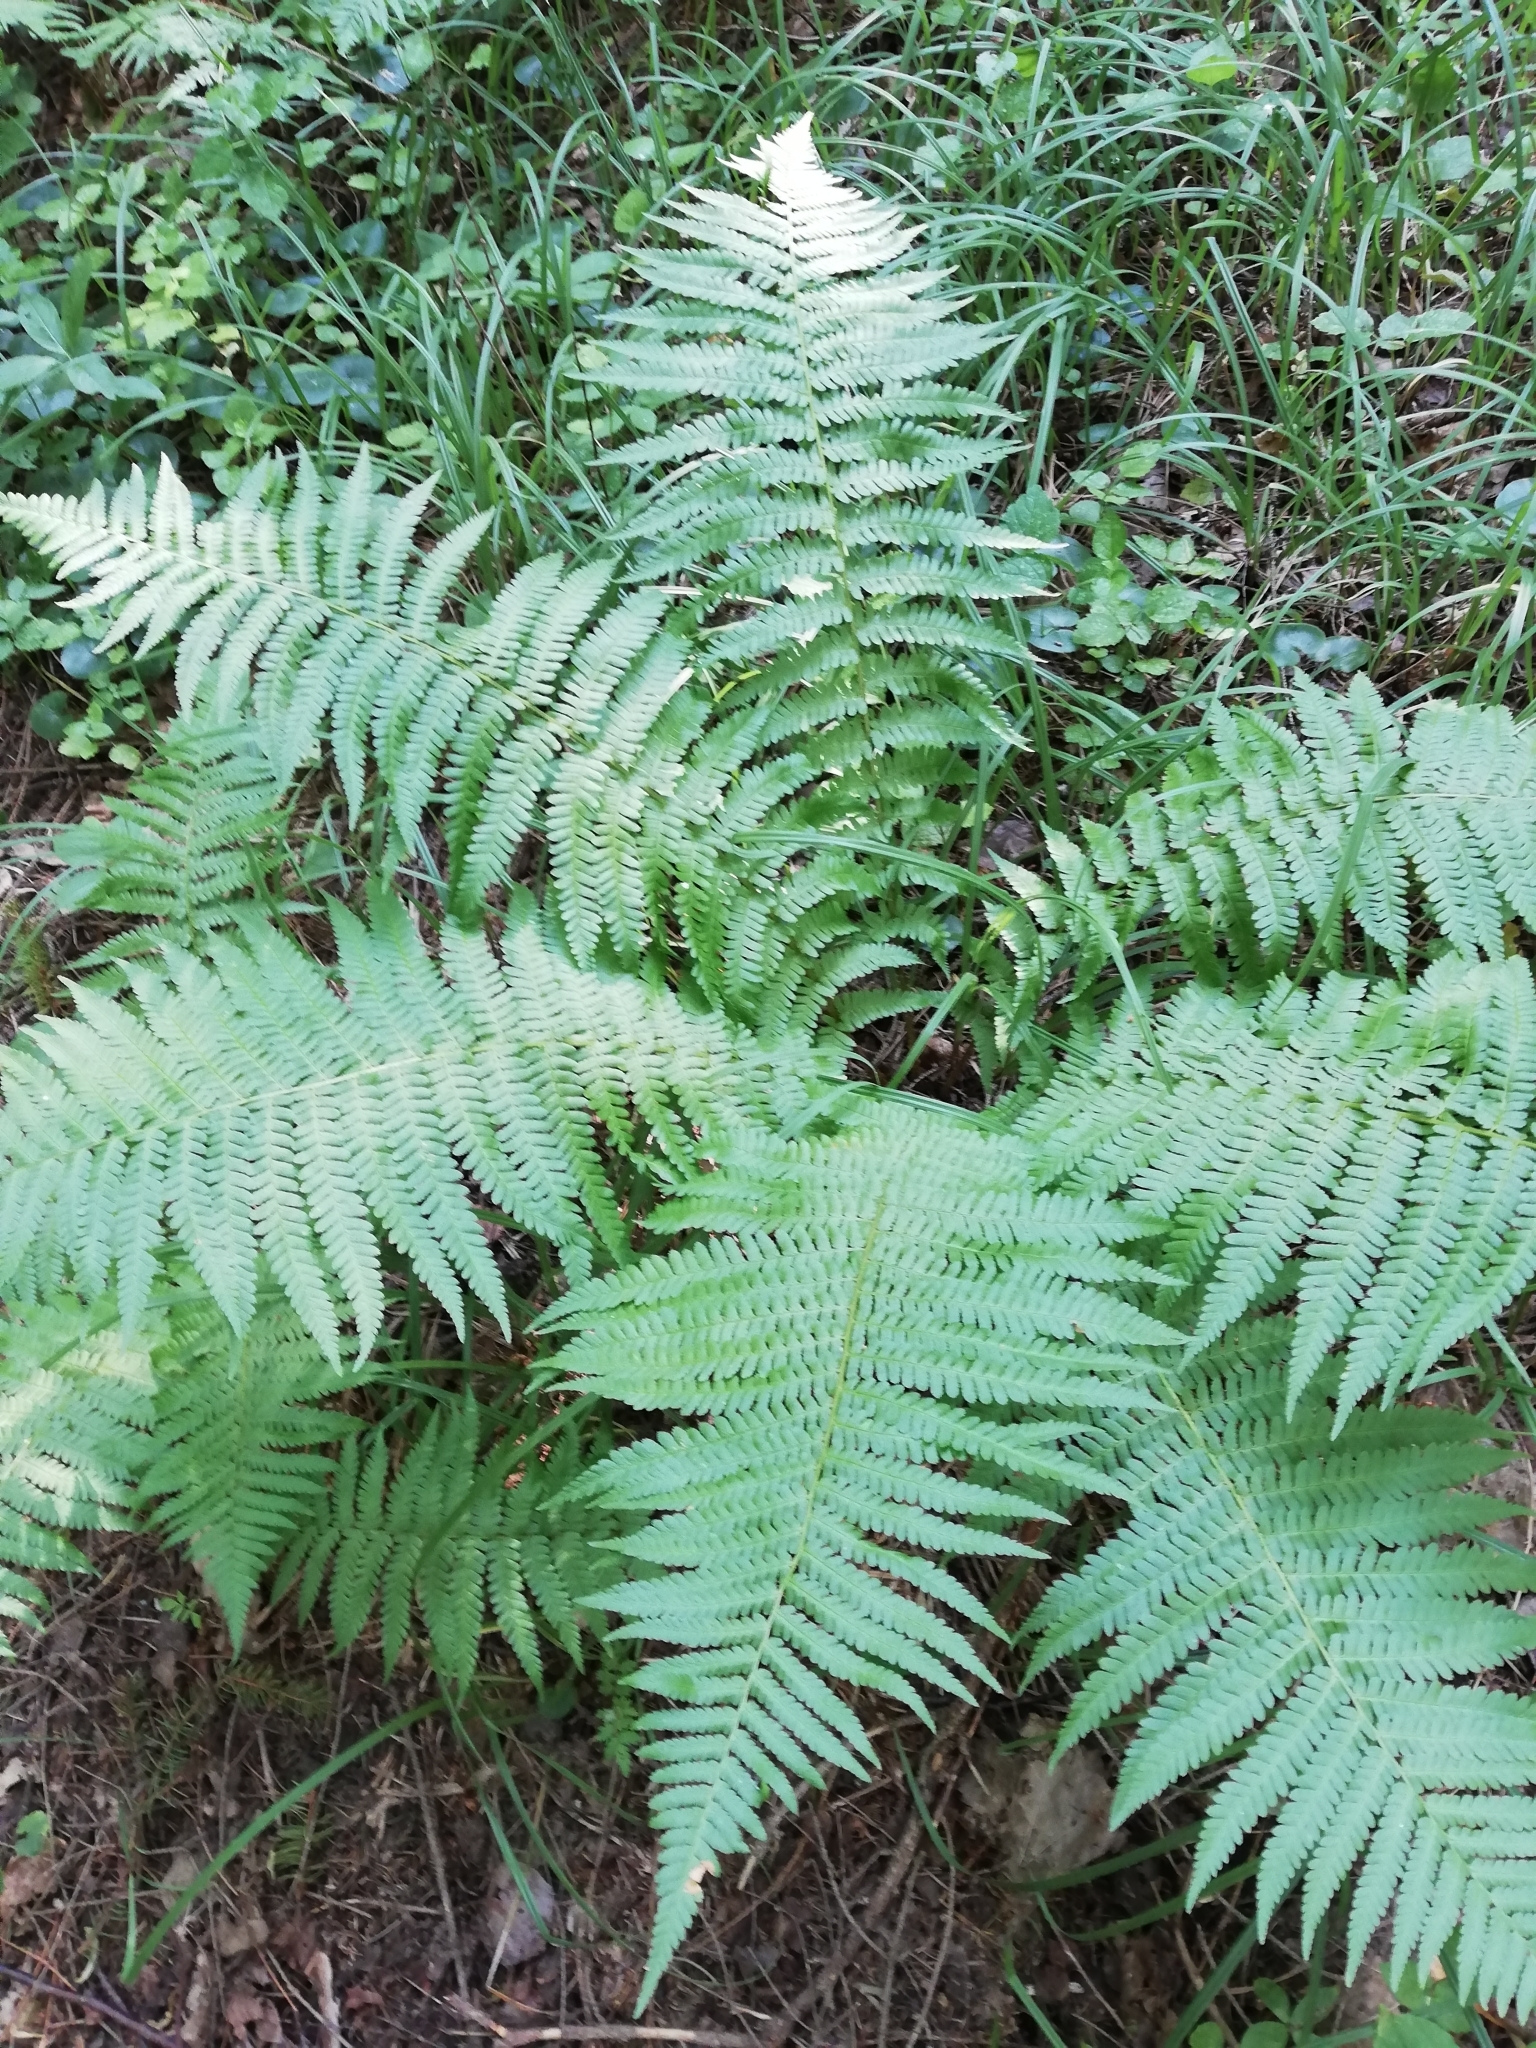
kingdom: Plantae
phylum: Tracheophyta
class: Polypodiopsida
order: Polypodiales
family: Dryopteridaceae
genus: Dryopteris
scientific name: Dryopteris filix-mas
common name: Male fern
